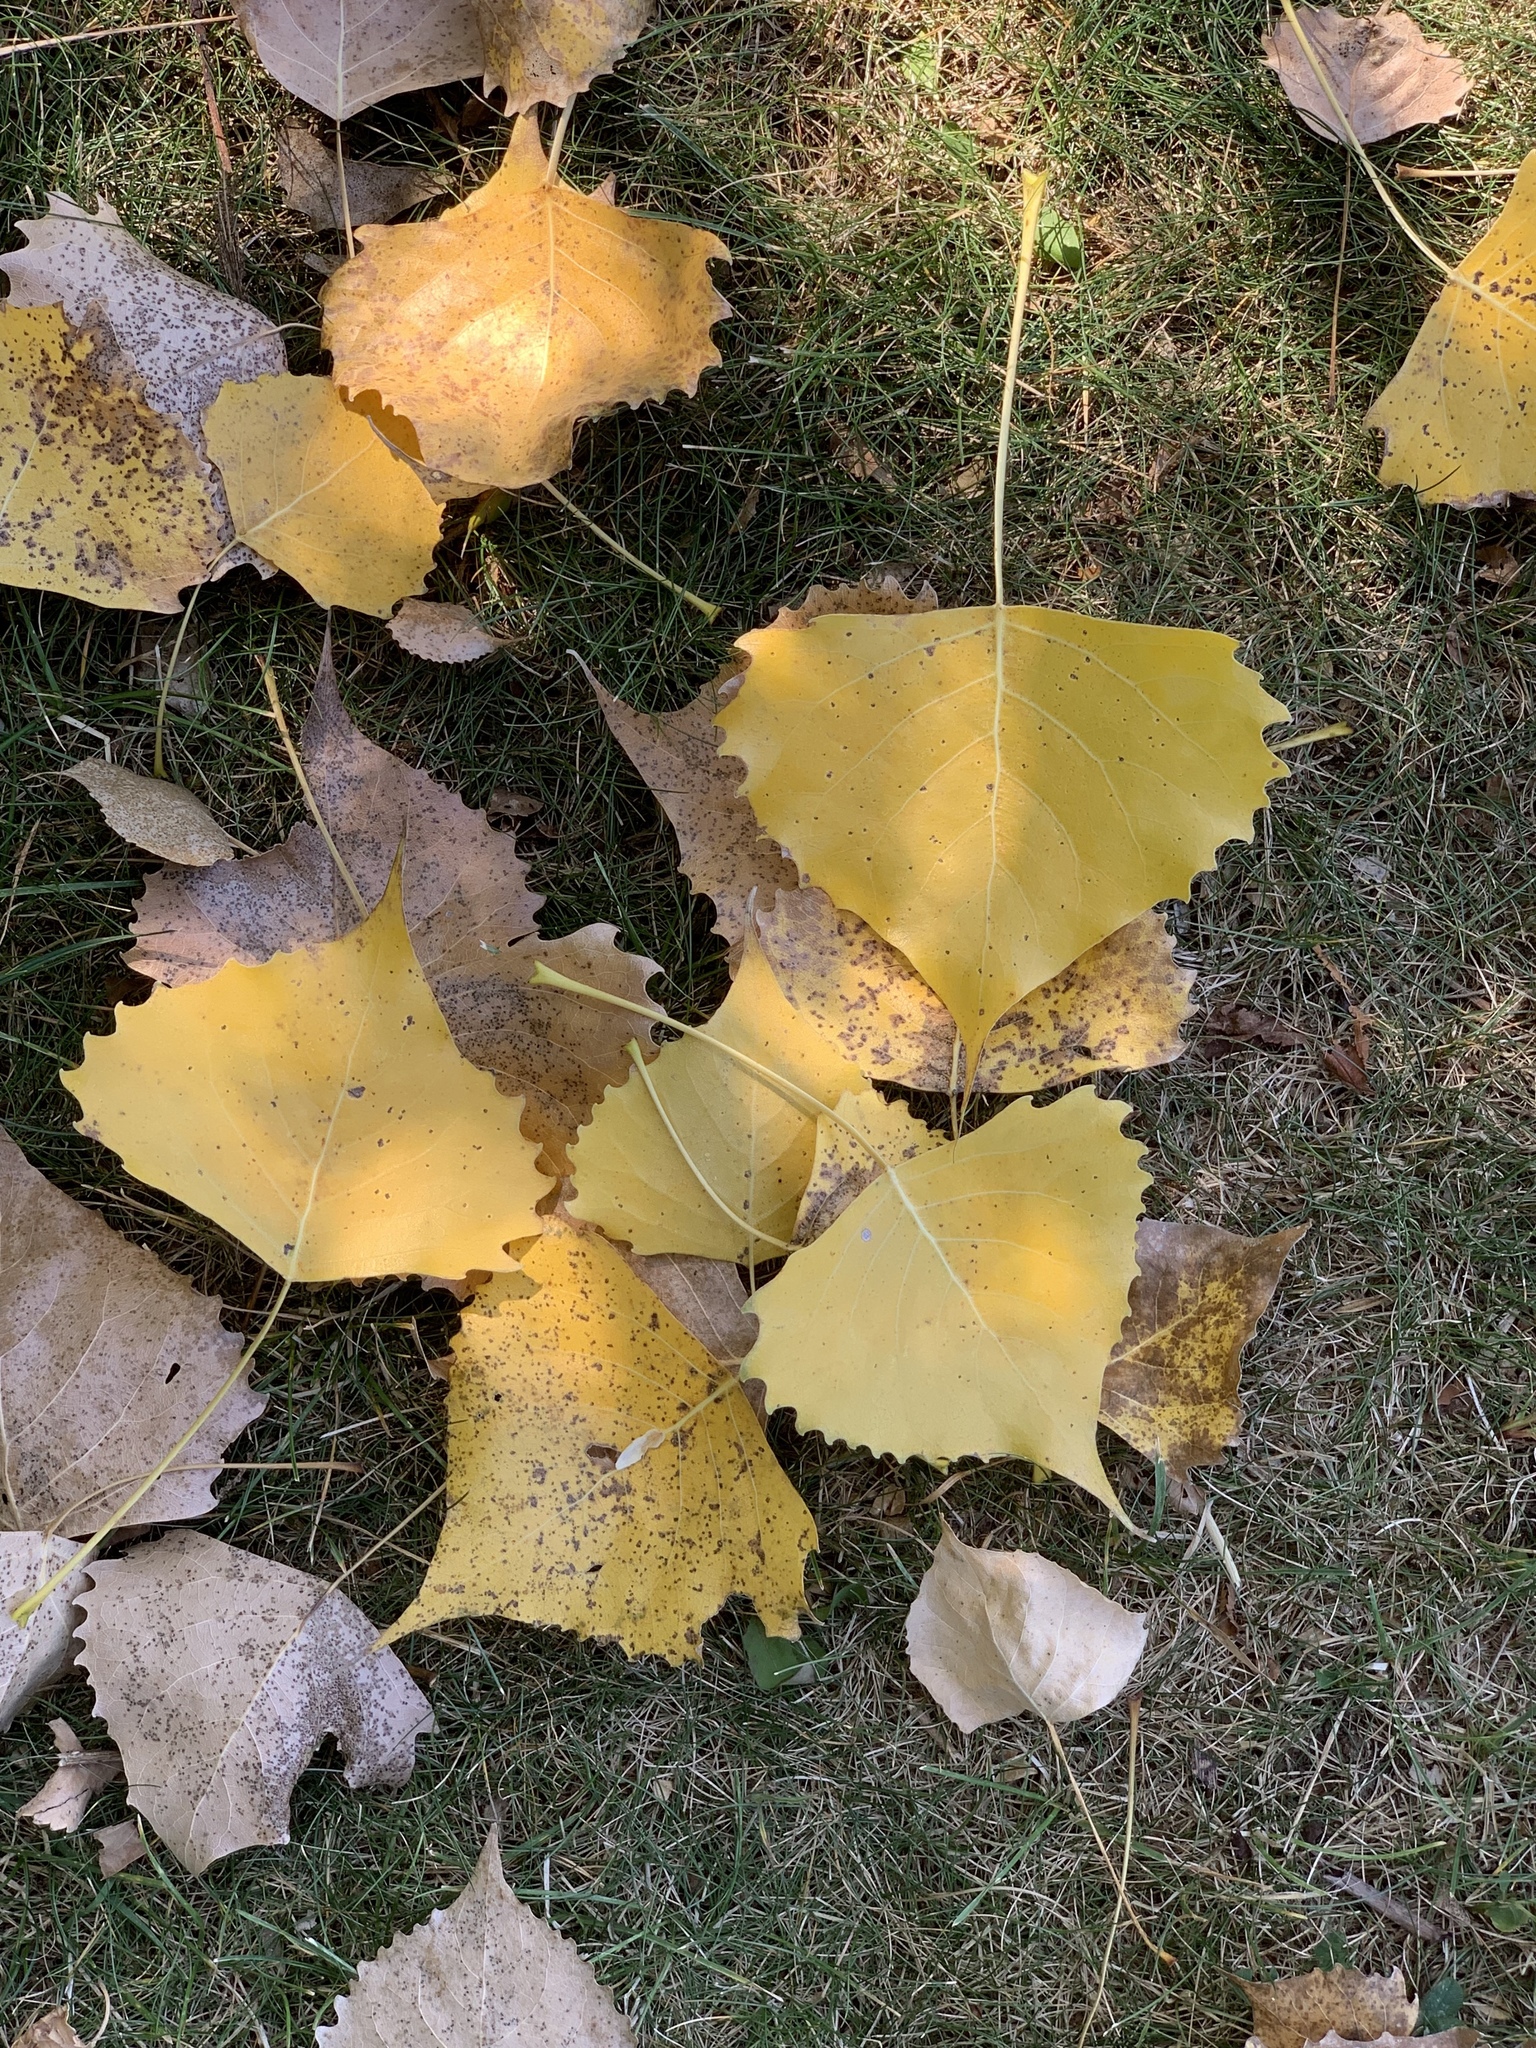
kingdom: Plantae
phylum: Tracheophyta
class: Magnoliopsida
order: Malpighiales
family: Salicaceae
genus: Populus
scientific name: Populus deltoides
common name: Eastern cottonwood
